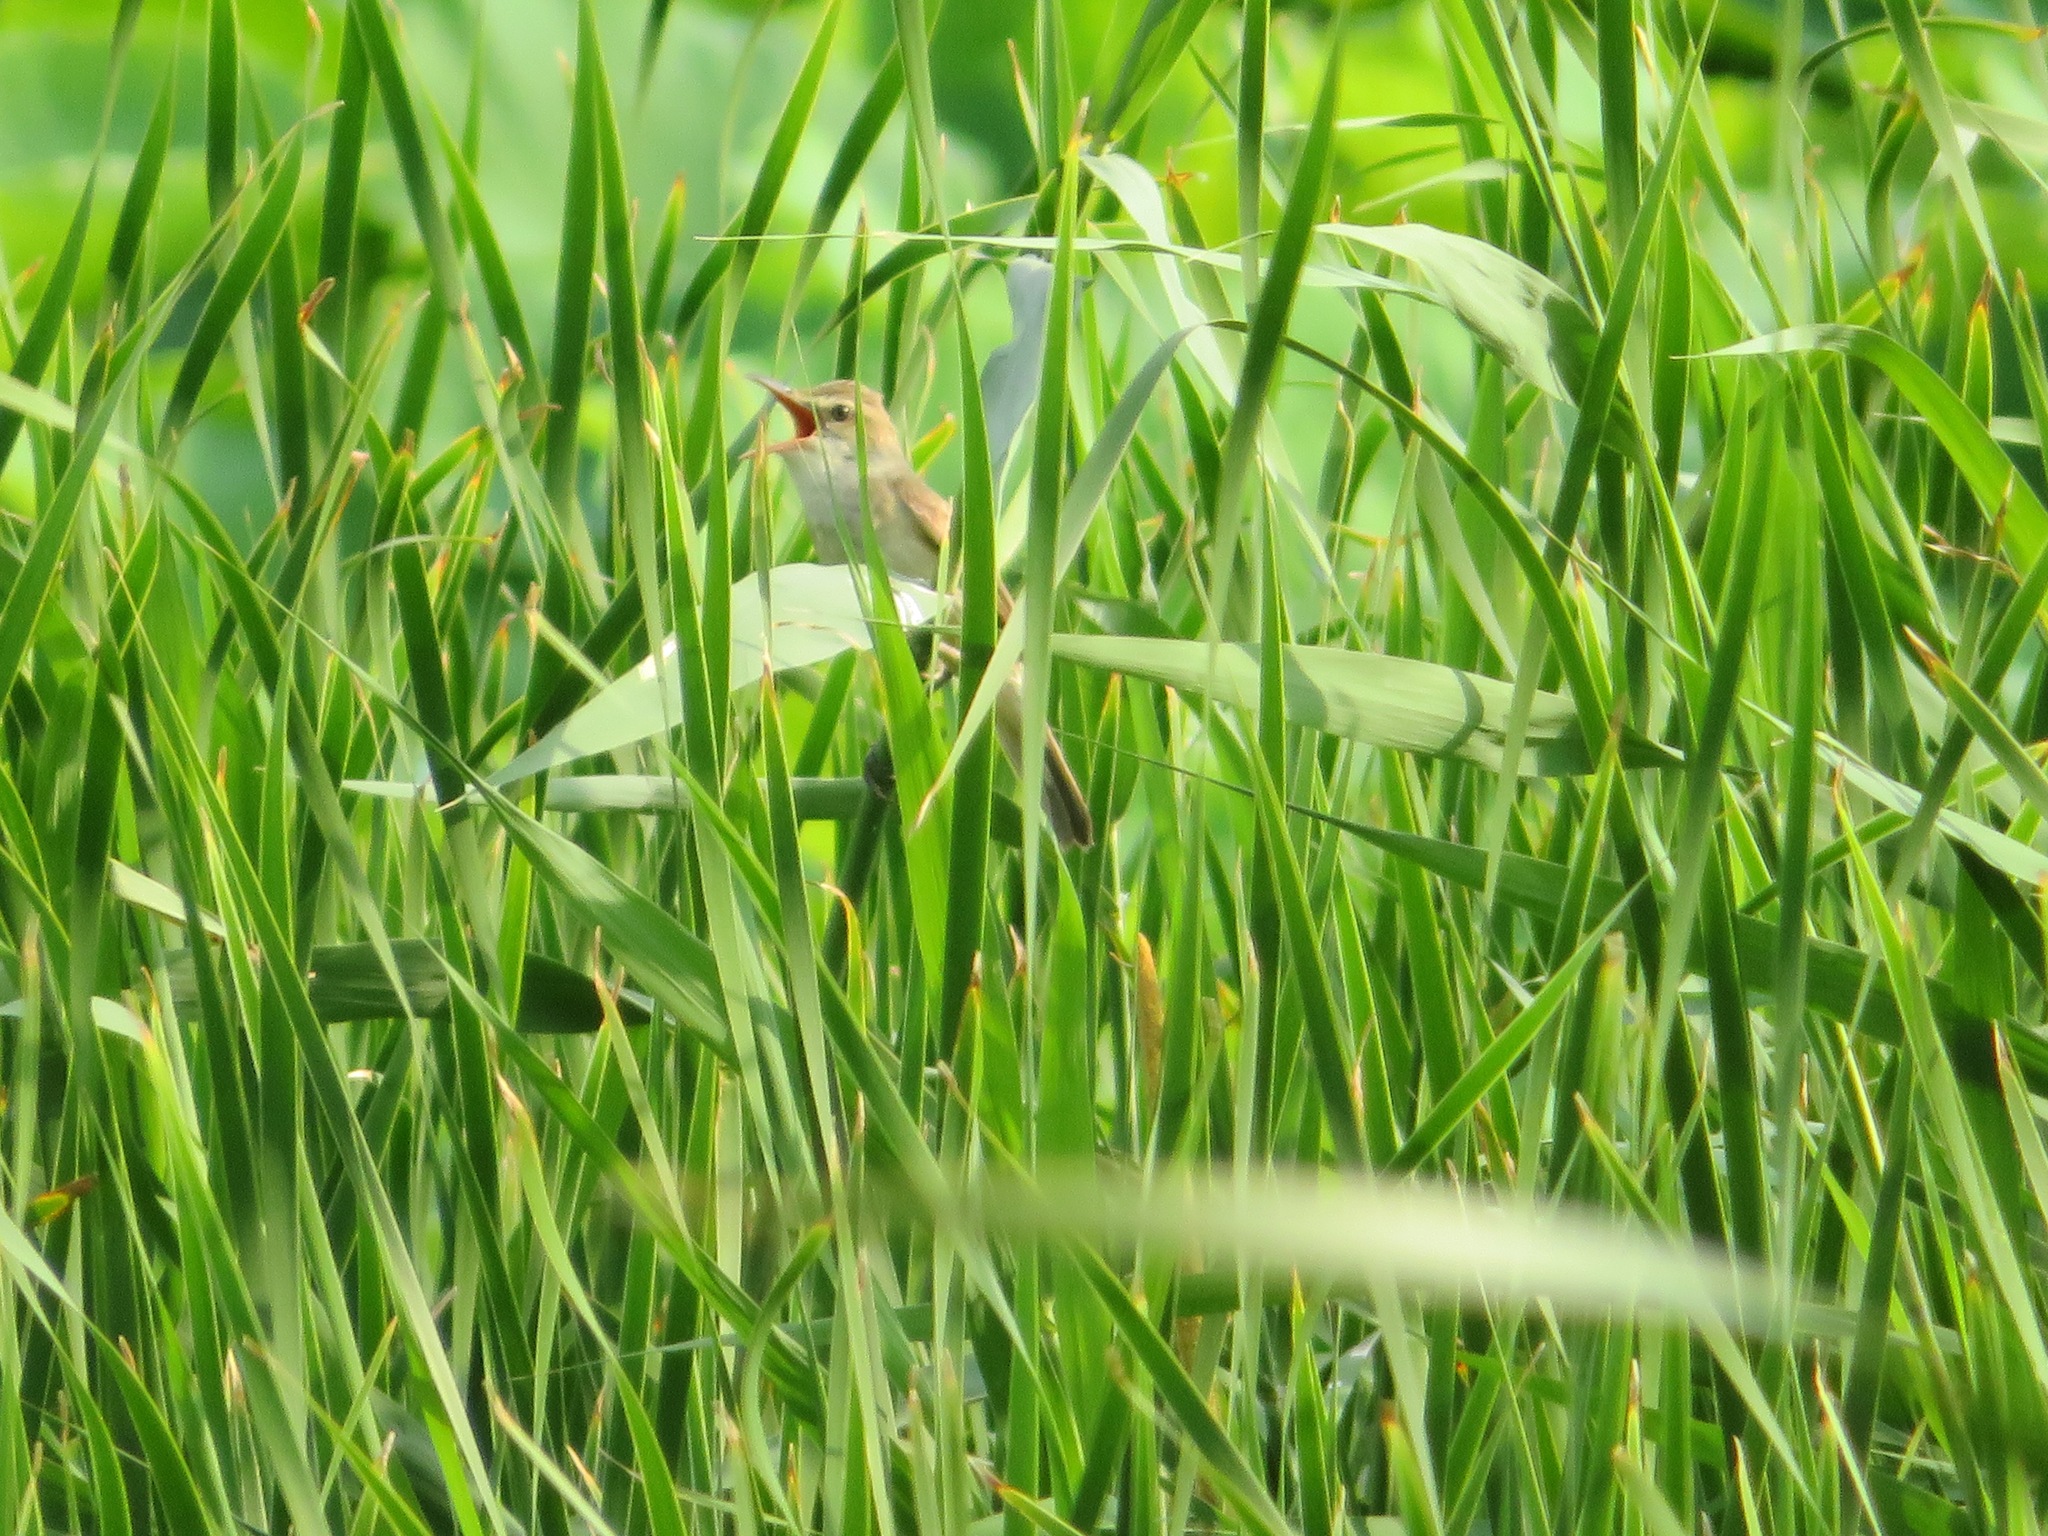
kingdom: Animalia
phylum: Chordata
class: Aves
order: Passeriformes
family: Acrocephalidae
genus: Acrocephalus
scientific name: Acrocephalus orientalis
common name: Oriental reed warbler
